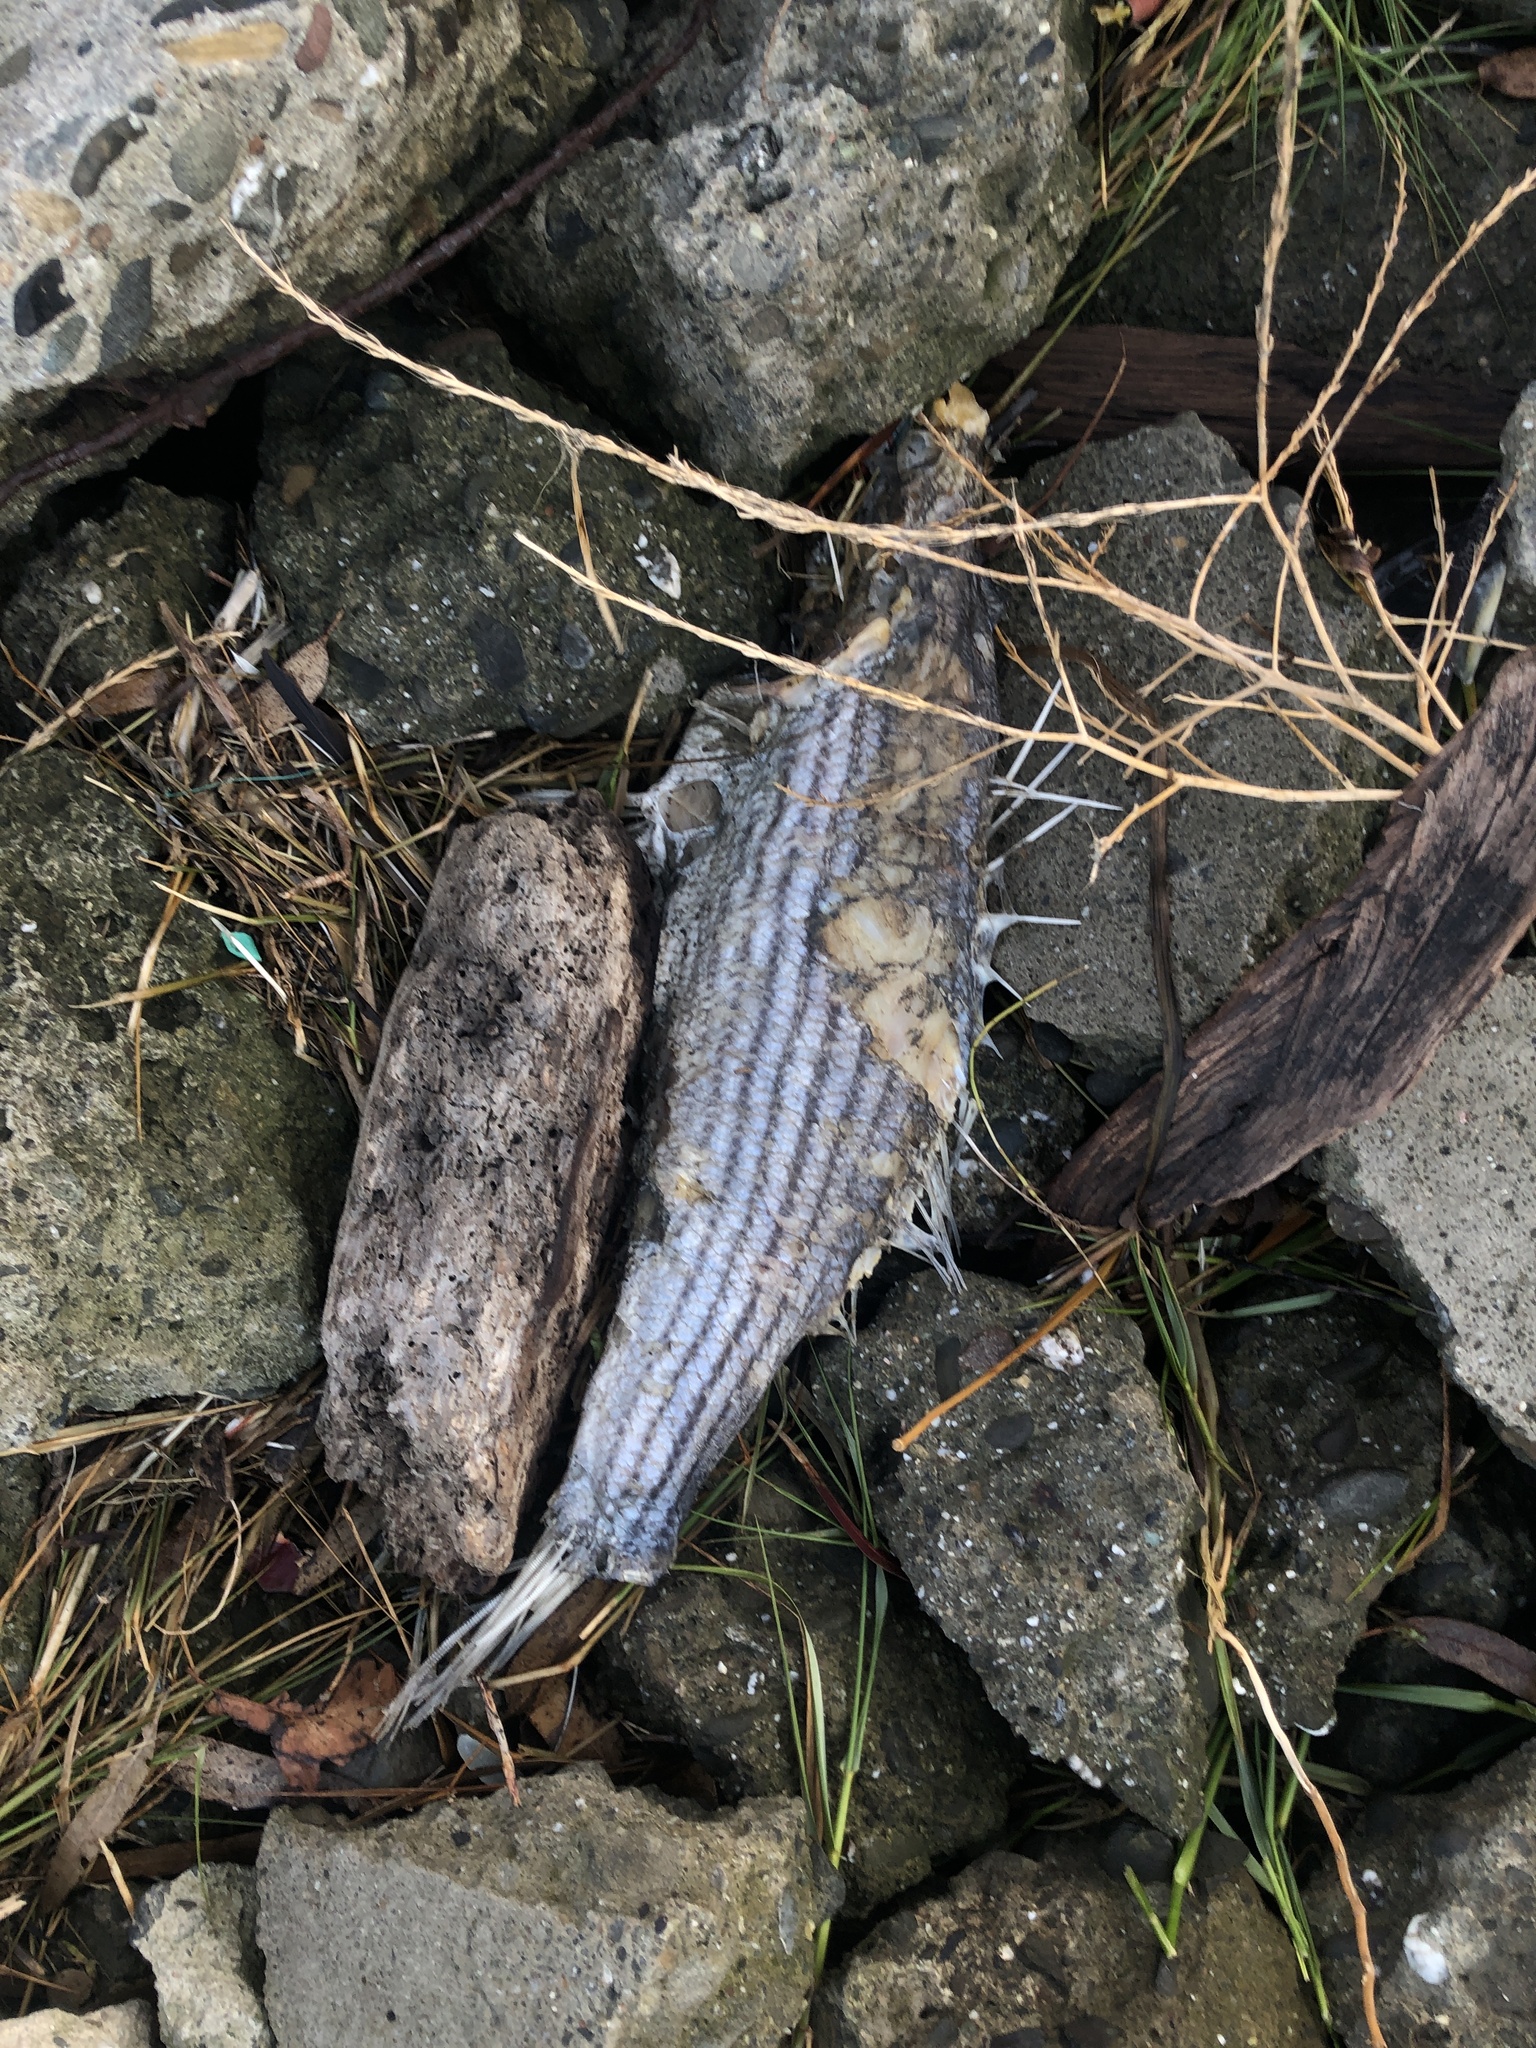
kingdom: Animalia
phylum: Chordata
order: Perciformes
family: Moronidae
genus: Morone
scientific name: Morone saxatilis
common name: Striped bass
